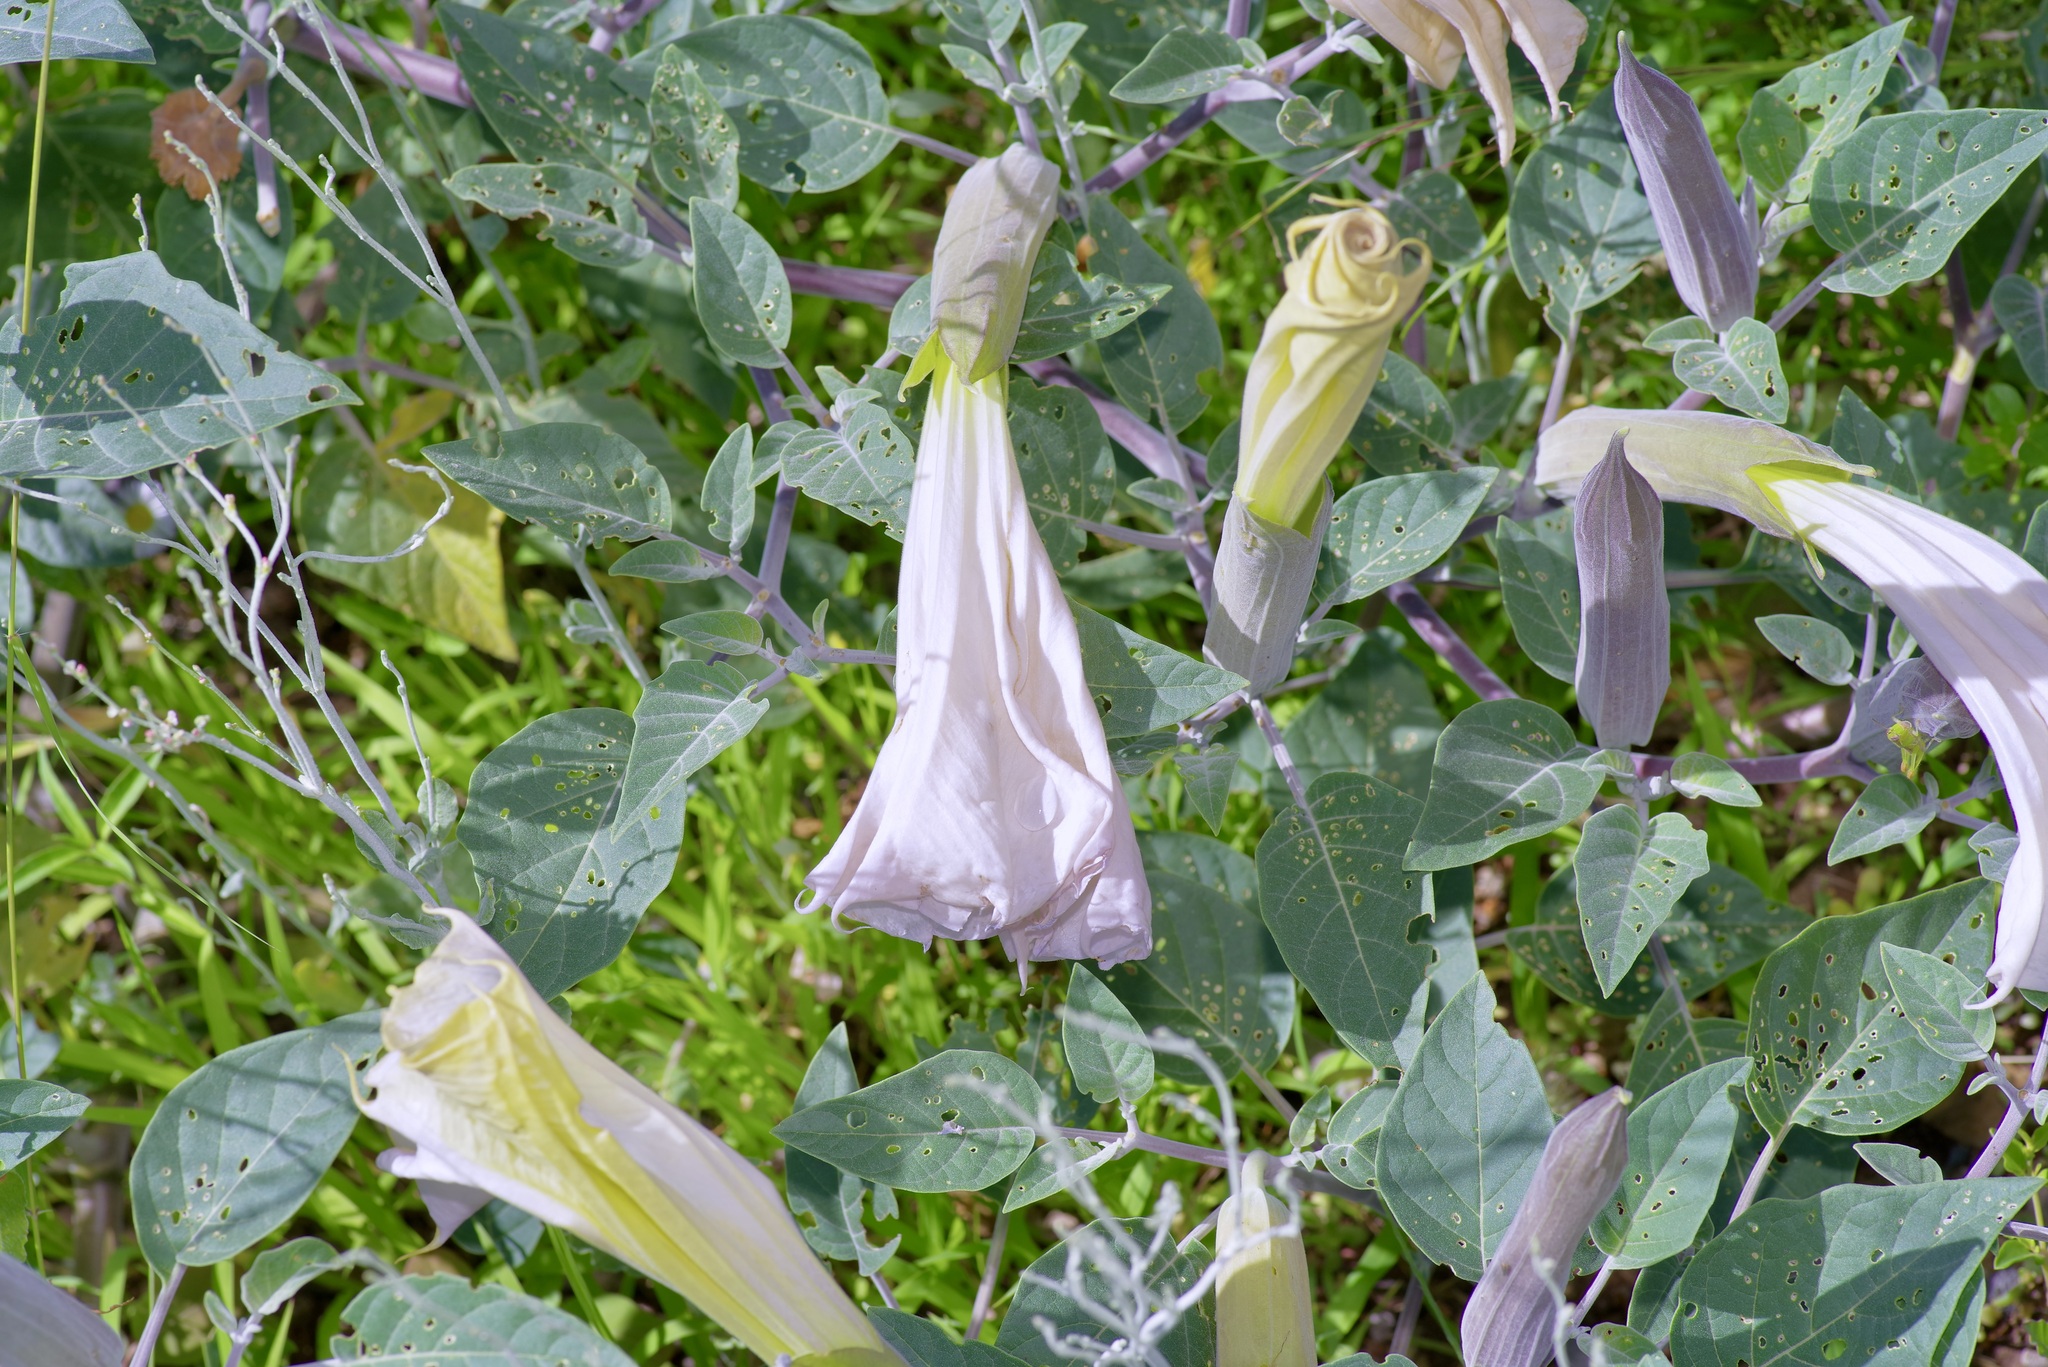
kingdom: Plantae
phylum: Tracheophyta
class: Magnoliopsida
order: Solanales
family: Solanaceae
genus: Datura
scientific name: Datura wrightii
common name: Sacred thorn-apple
